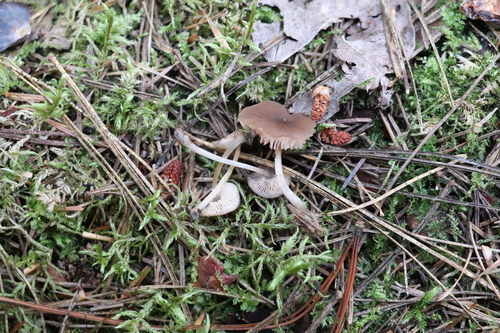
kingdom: Fungi
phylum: Basidiomycota
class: Agaricomycetes
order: Agaricales
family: Pluteaceae
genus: Pluteus
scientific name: Pluteus podospileus
